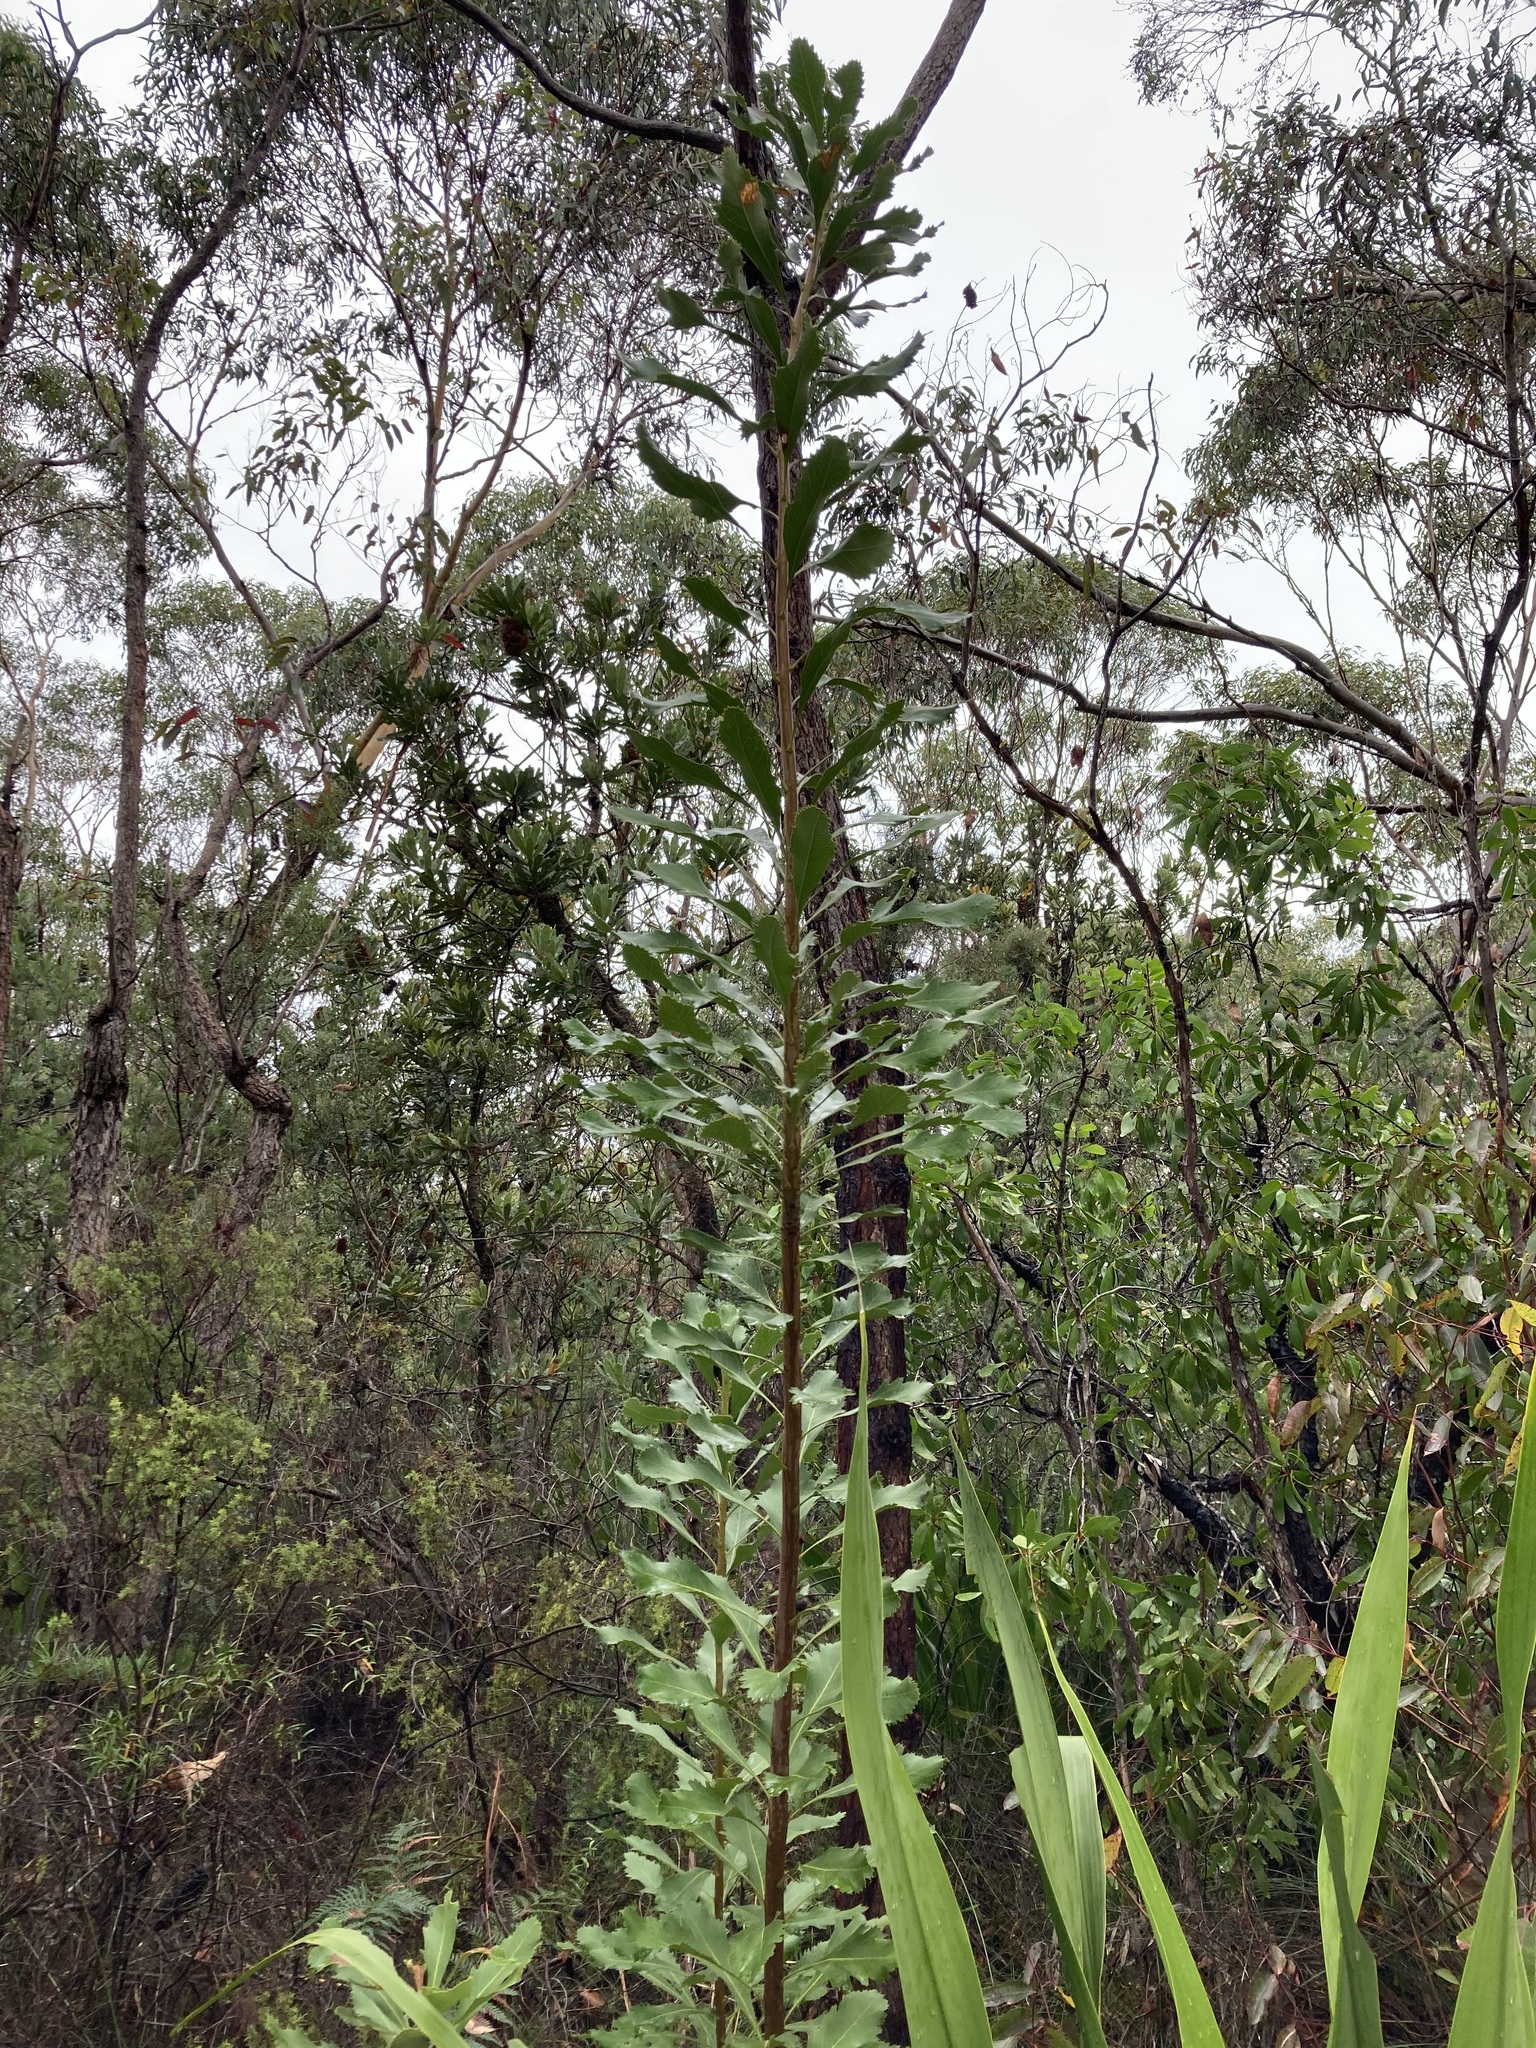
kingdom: Plantae
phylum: Tracheophyta
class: Magnoliopsida
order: Proteales
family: Proteaceae
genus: Telopea
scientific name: Telopea speciosissima
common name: New south wales waratah
